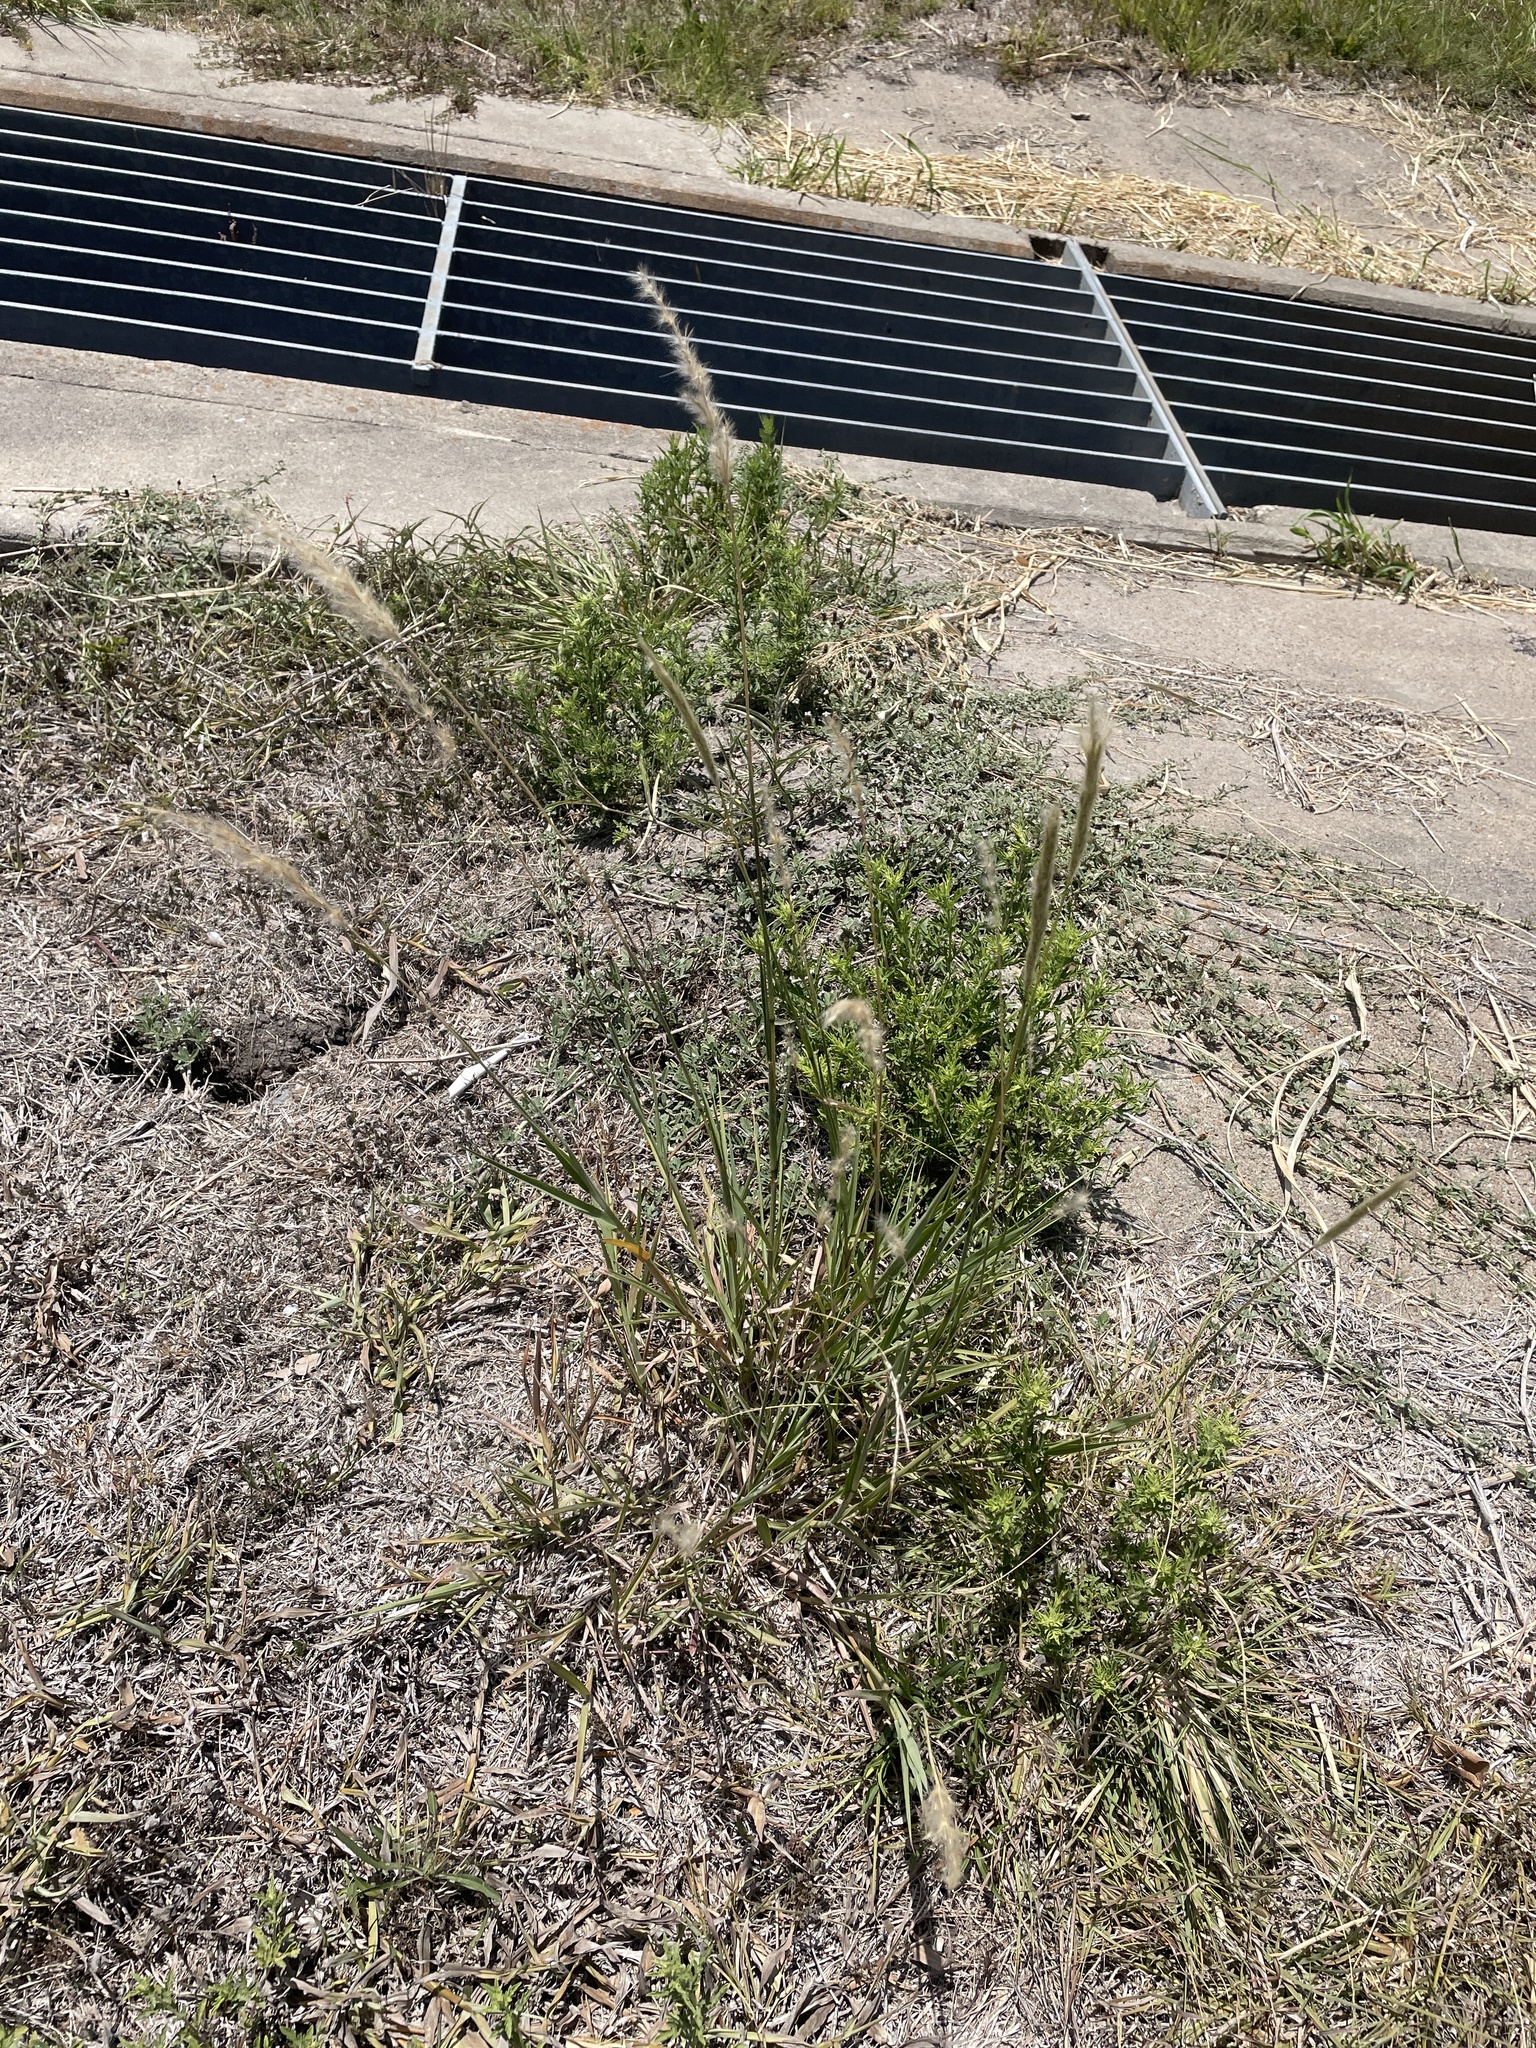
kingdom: Plantae
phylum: Tracheophyta
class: Liliopsida
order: Poales
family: Poaceae
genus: Bothriochloa
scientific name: Bothriochloa torreyana
